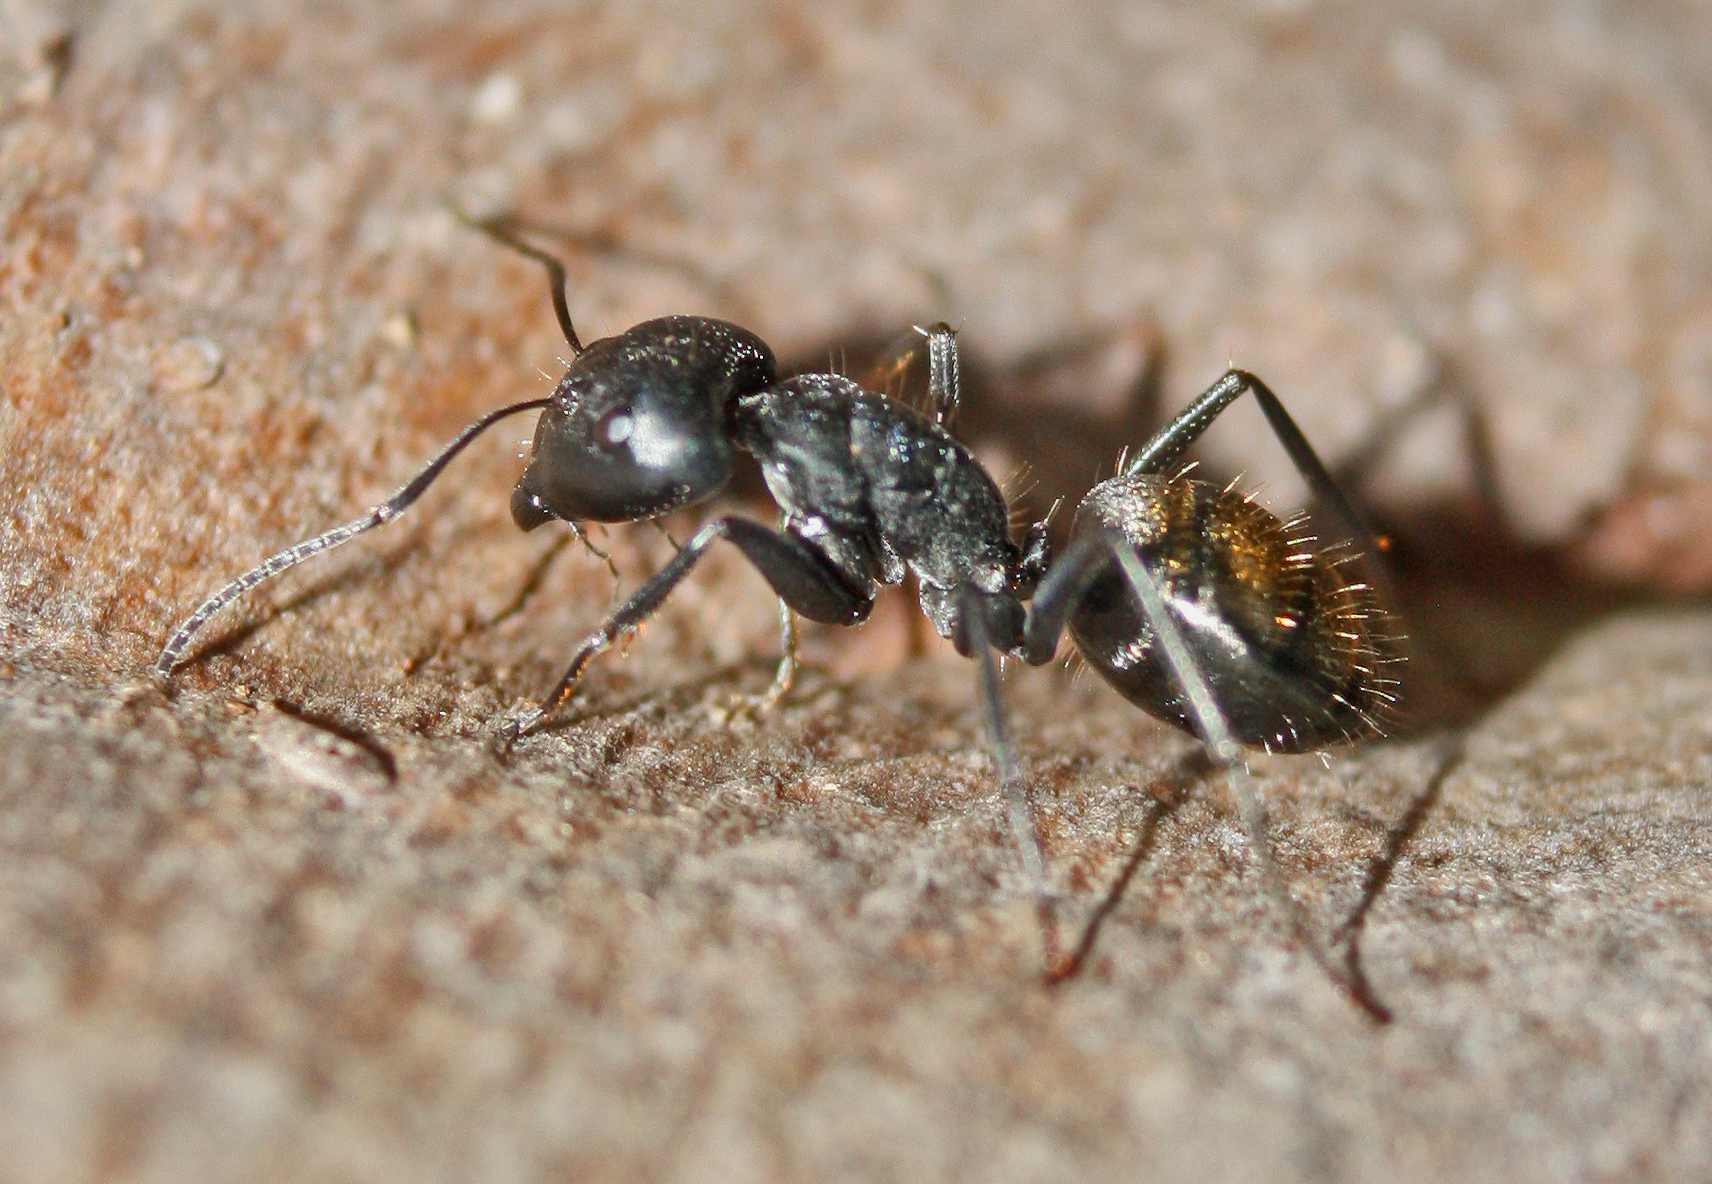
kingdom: Animalia
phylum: Arthropoda
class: Insecta
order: Hymenoptera
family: Formicidae
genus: Camponotus
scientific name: Camponotus aeneopilosus
